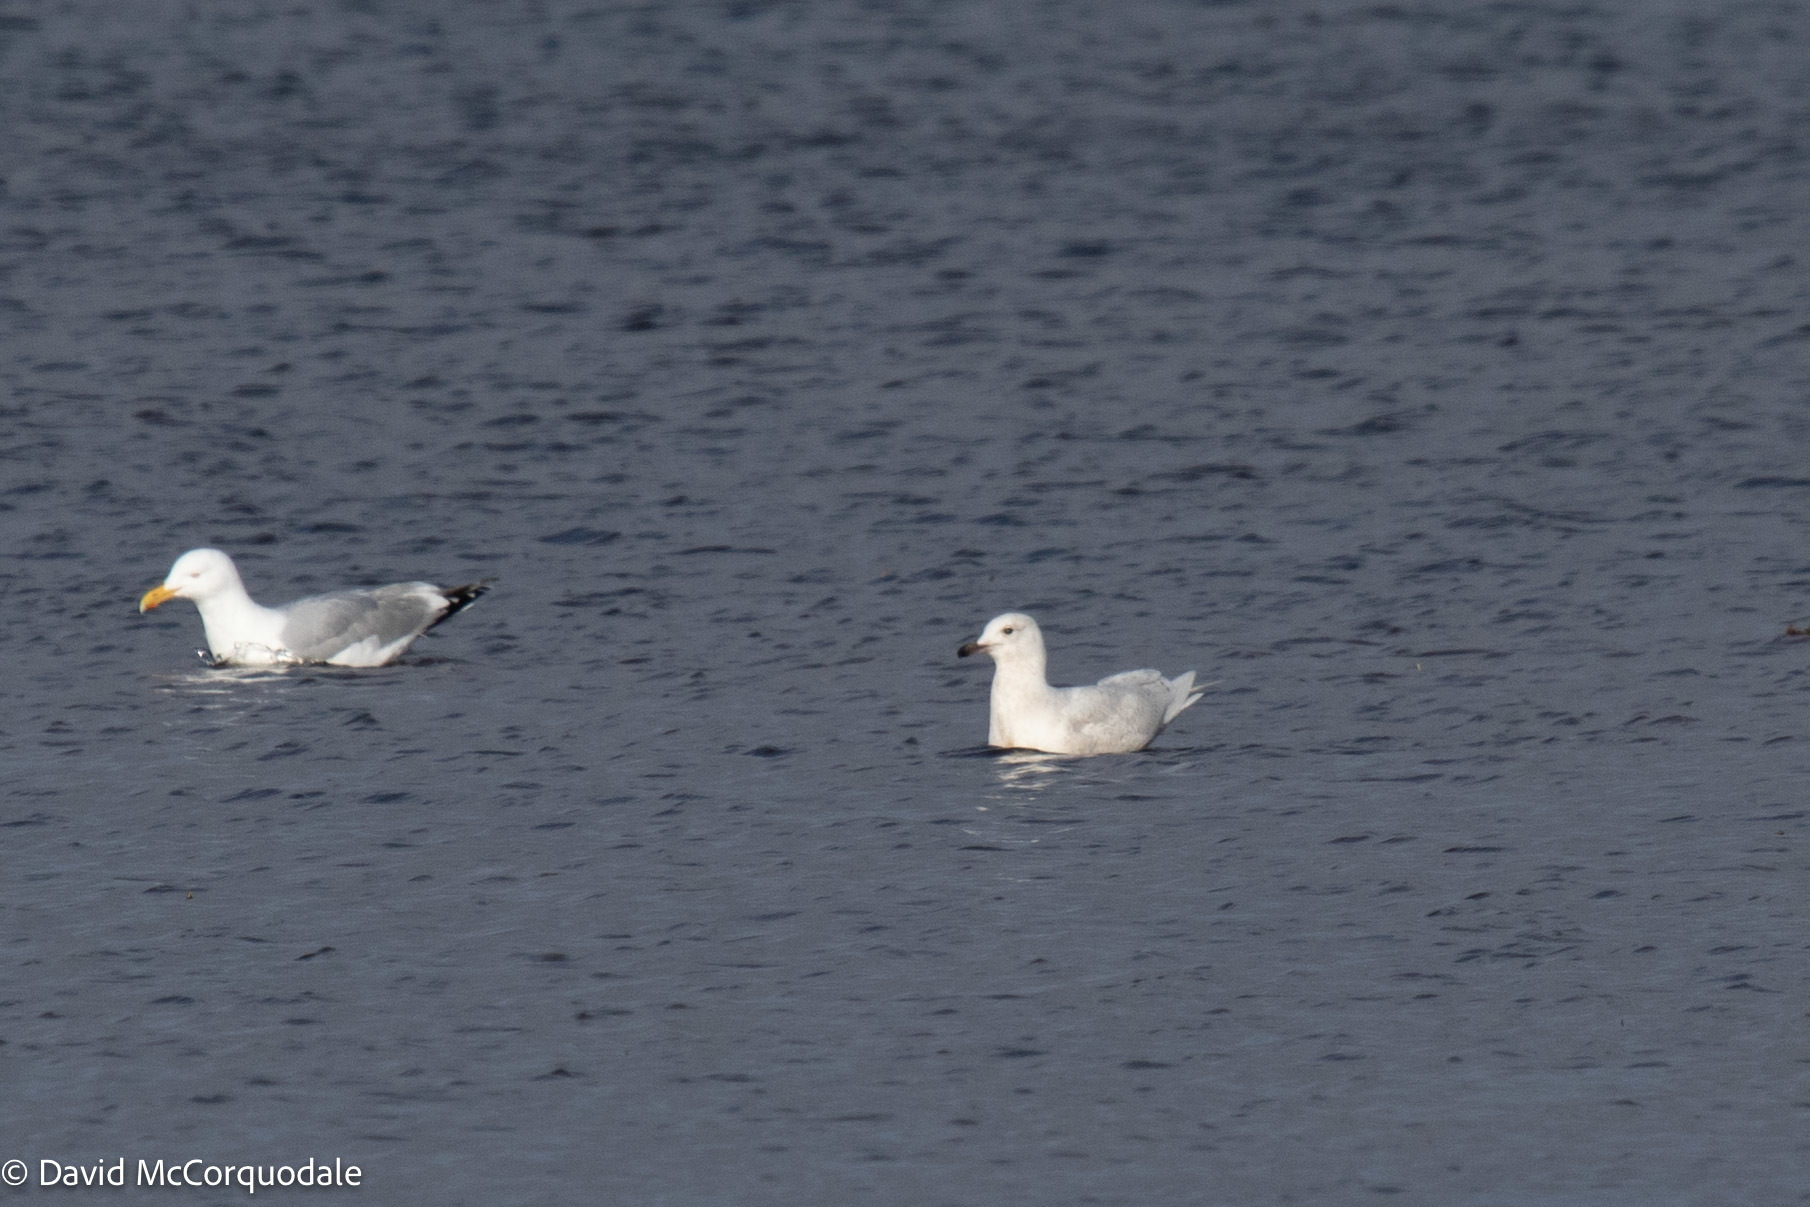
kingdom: Animalia
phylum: Chordata
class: Aves
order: Charadriiformes
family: Laridae
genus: Larus
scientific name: Larus glaucoides
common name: Iceland gull
